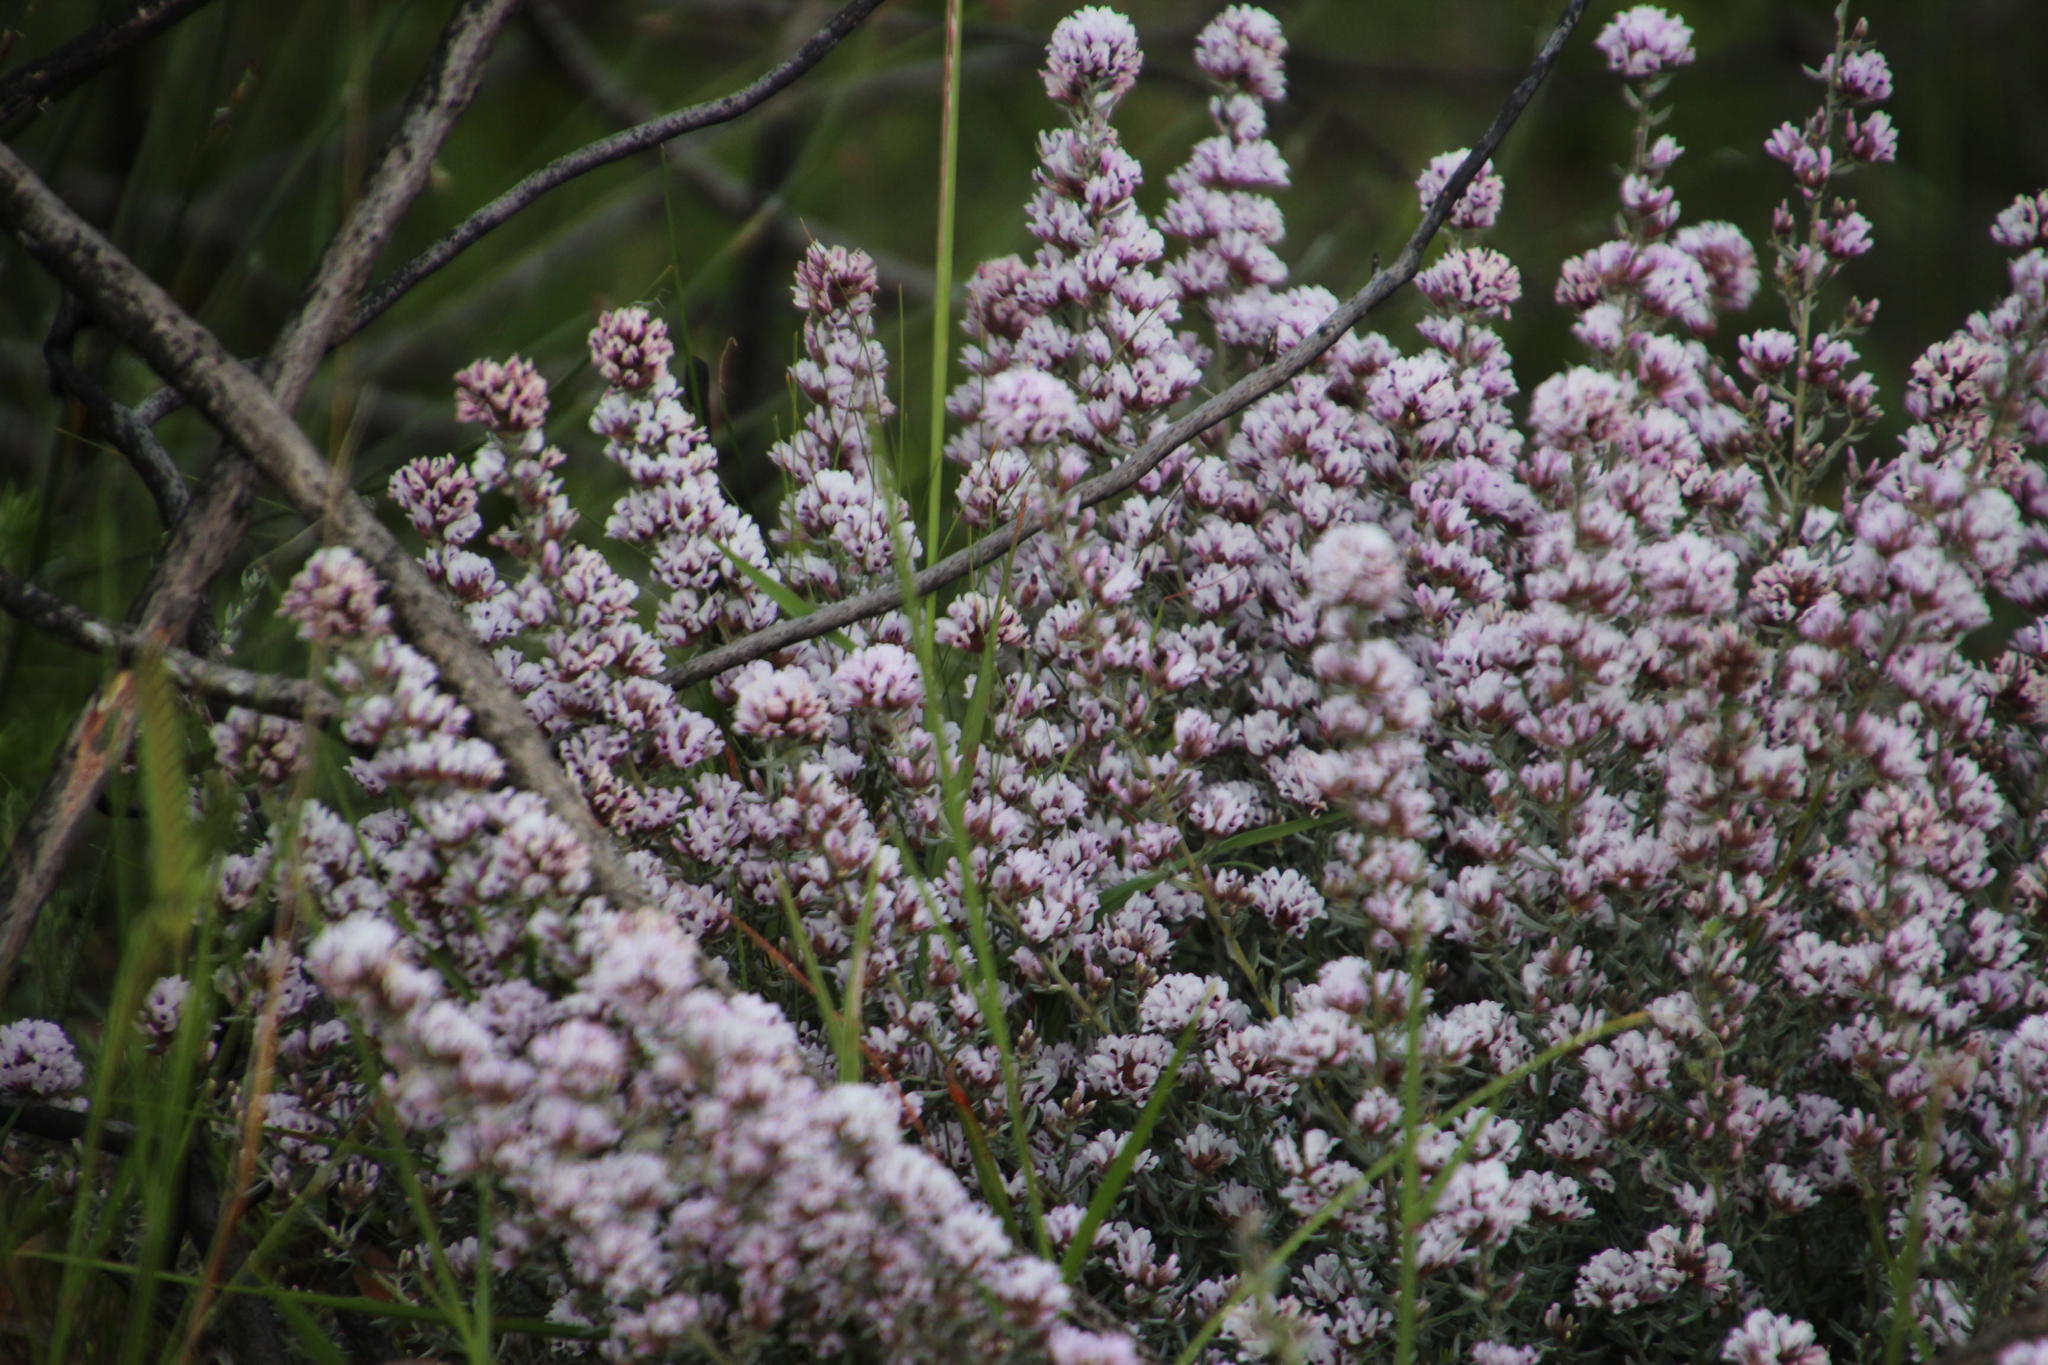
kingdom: Plantae
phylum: Tracheophyta
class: Magnoliopsida
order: Fabales
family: Fabaceae
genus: Amphithalea
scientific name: Amphithalea ericifolia
